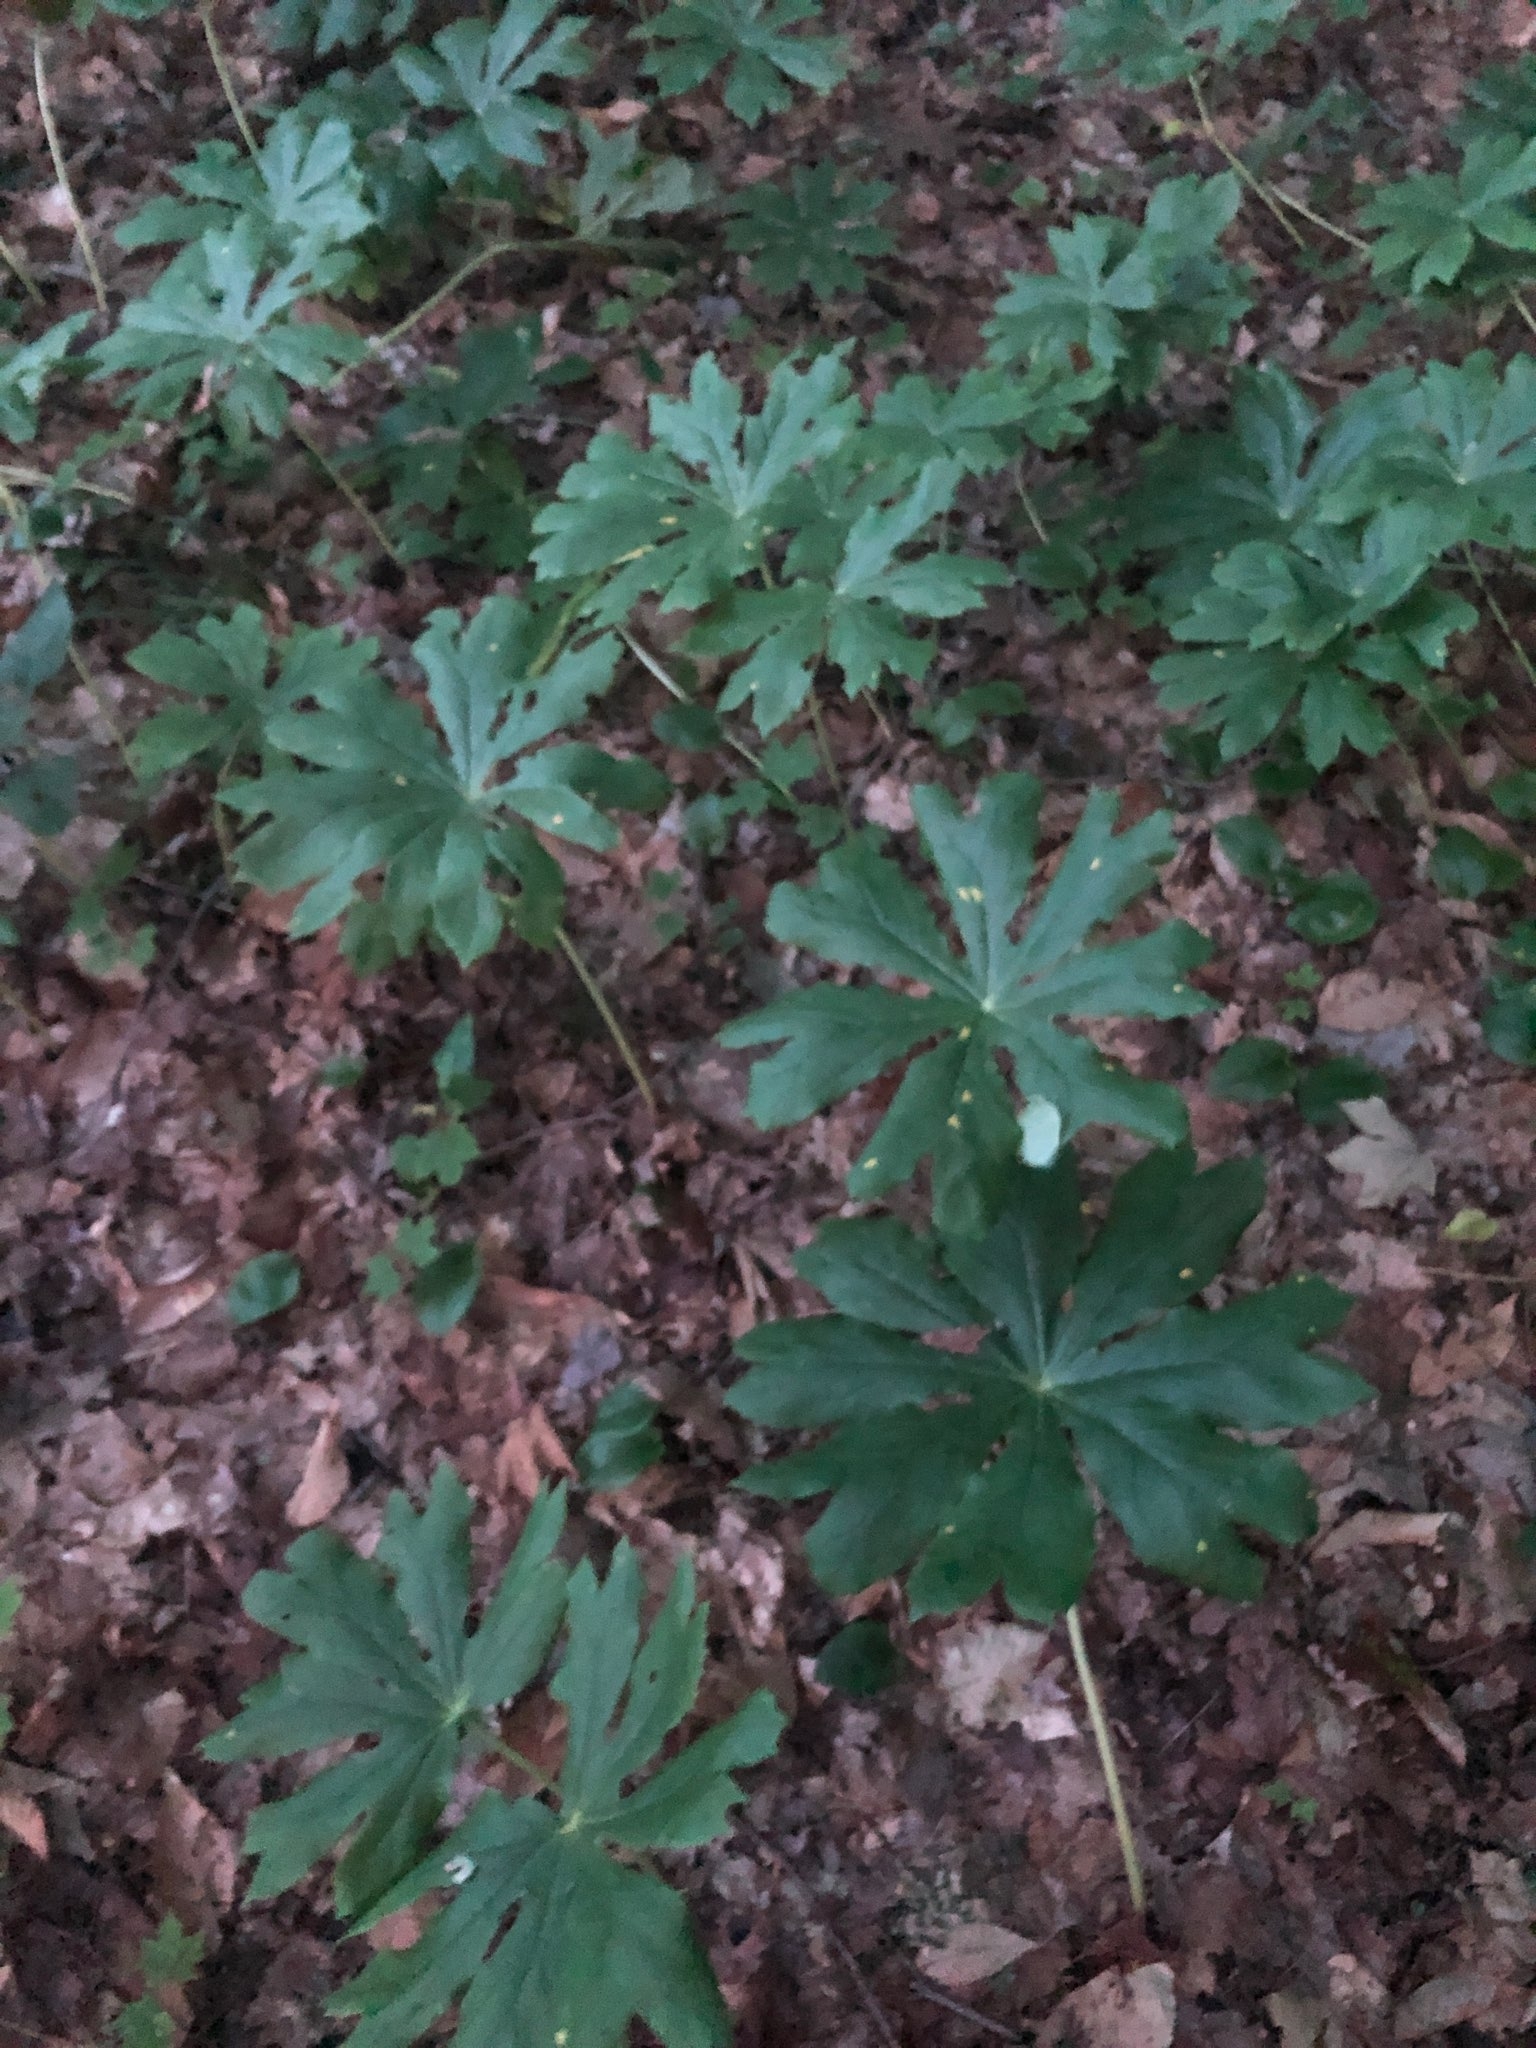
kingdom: Plantae
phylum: Tracheophyta
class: Magnoliopsida
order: Ranunculales
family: Berberidaceae
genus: Podophyllum
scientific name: Podophyllum peltatum
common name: Wild mandrake
